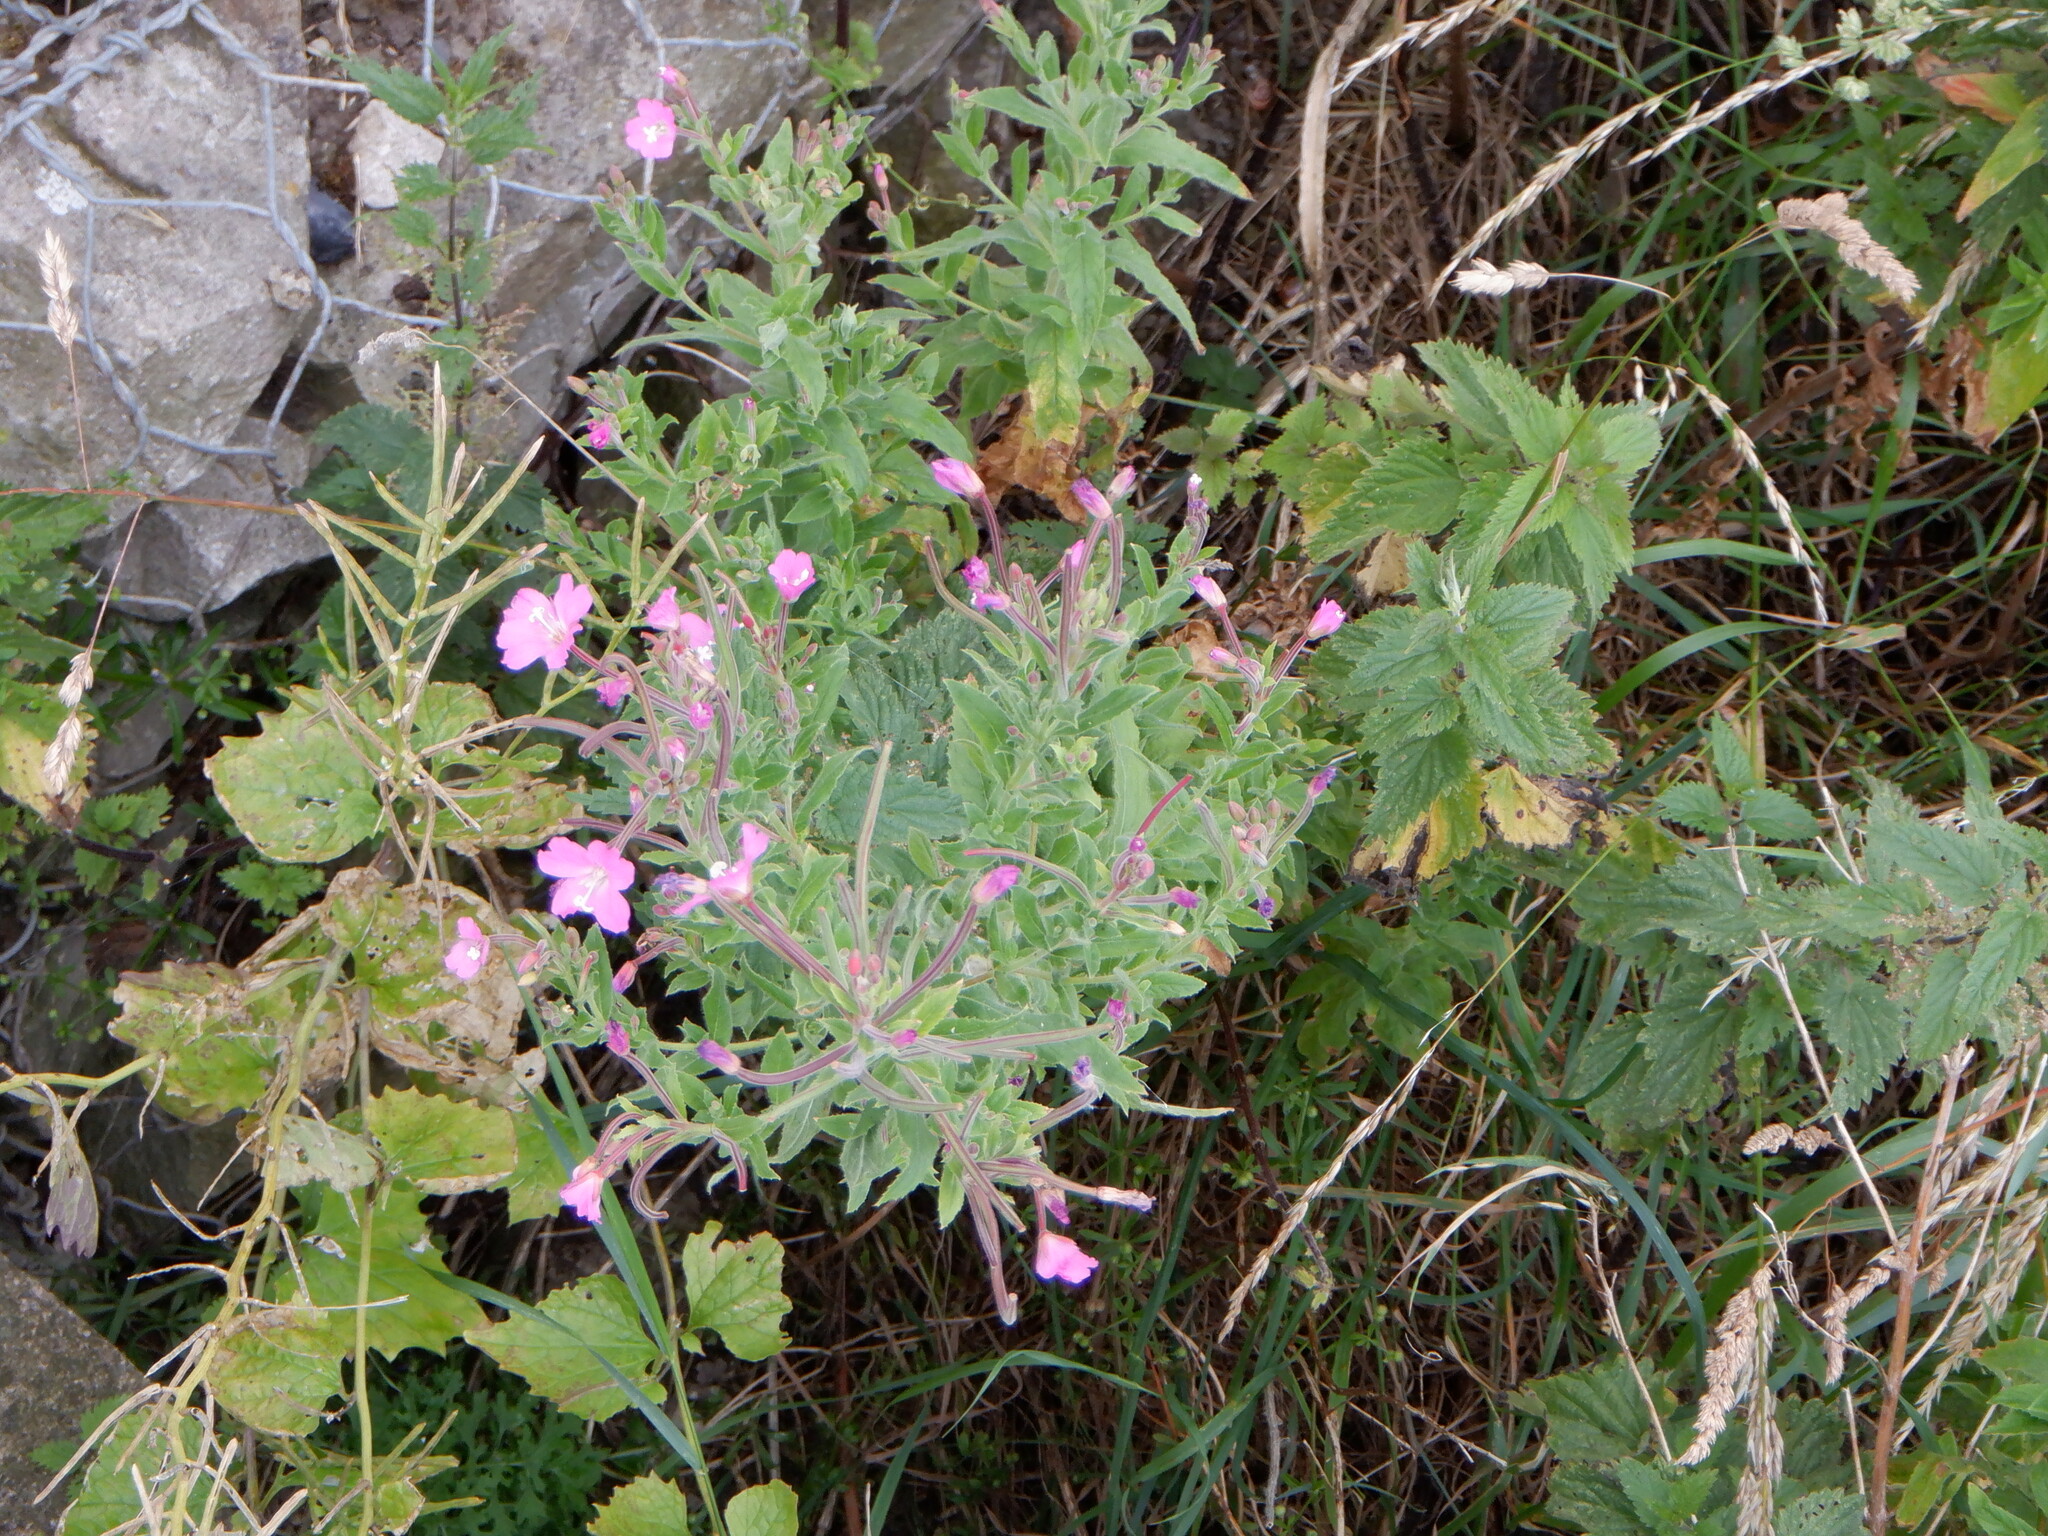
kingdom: Plantae
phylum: Tracheophyta
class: Magnoliopsida
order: Myrtales
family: Onagraceae
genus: Epilobium
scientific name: Epilobium hirsutum
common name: Great willowherb
